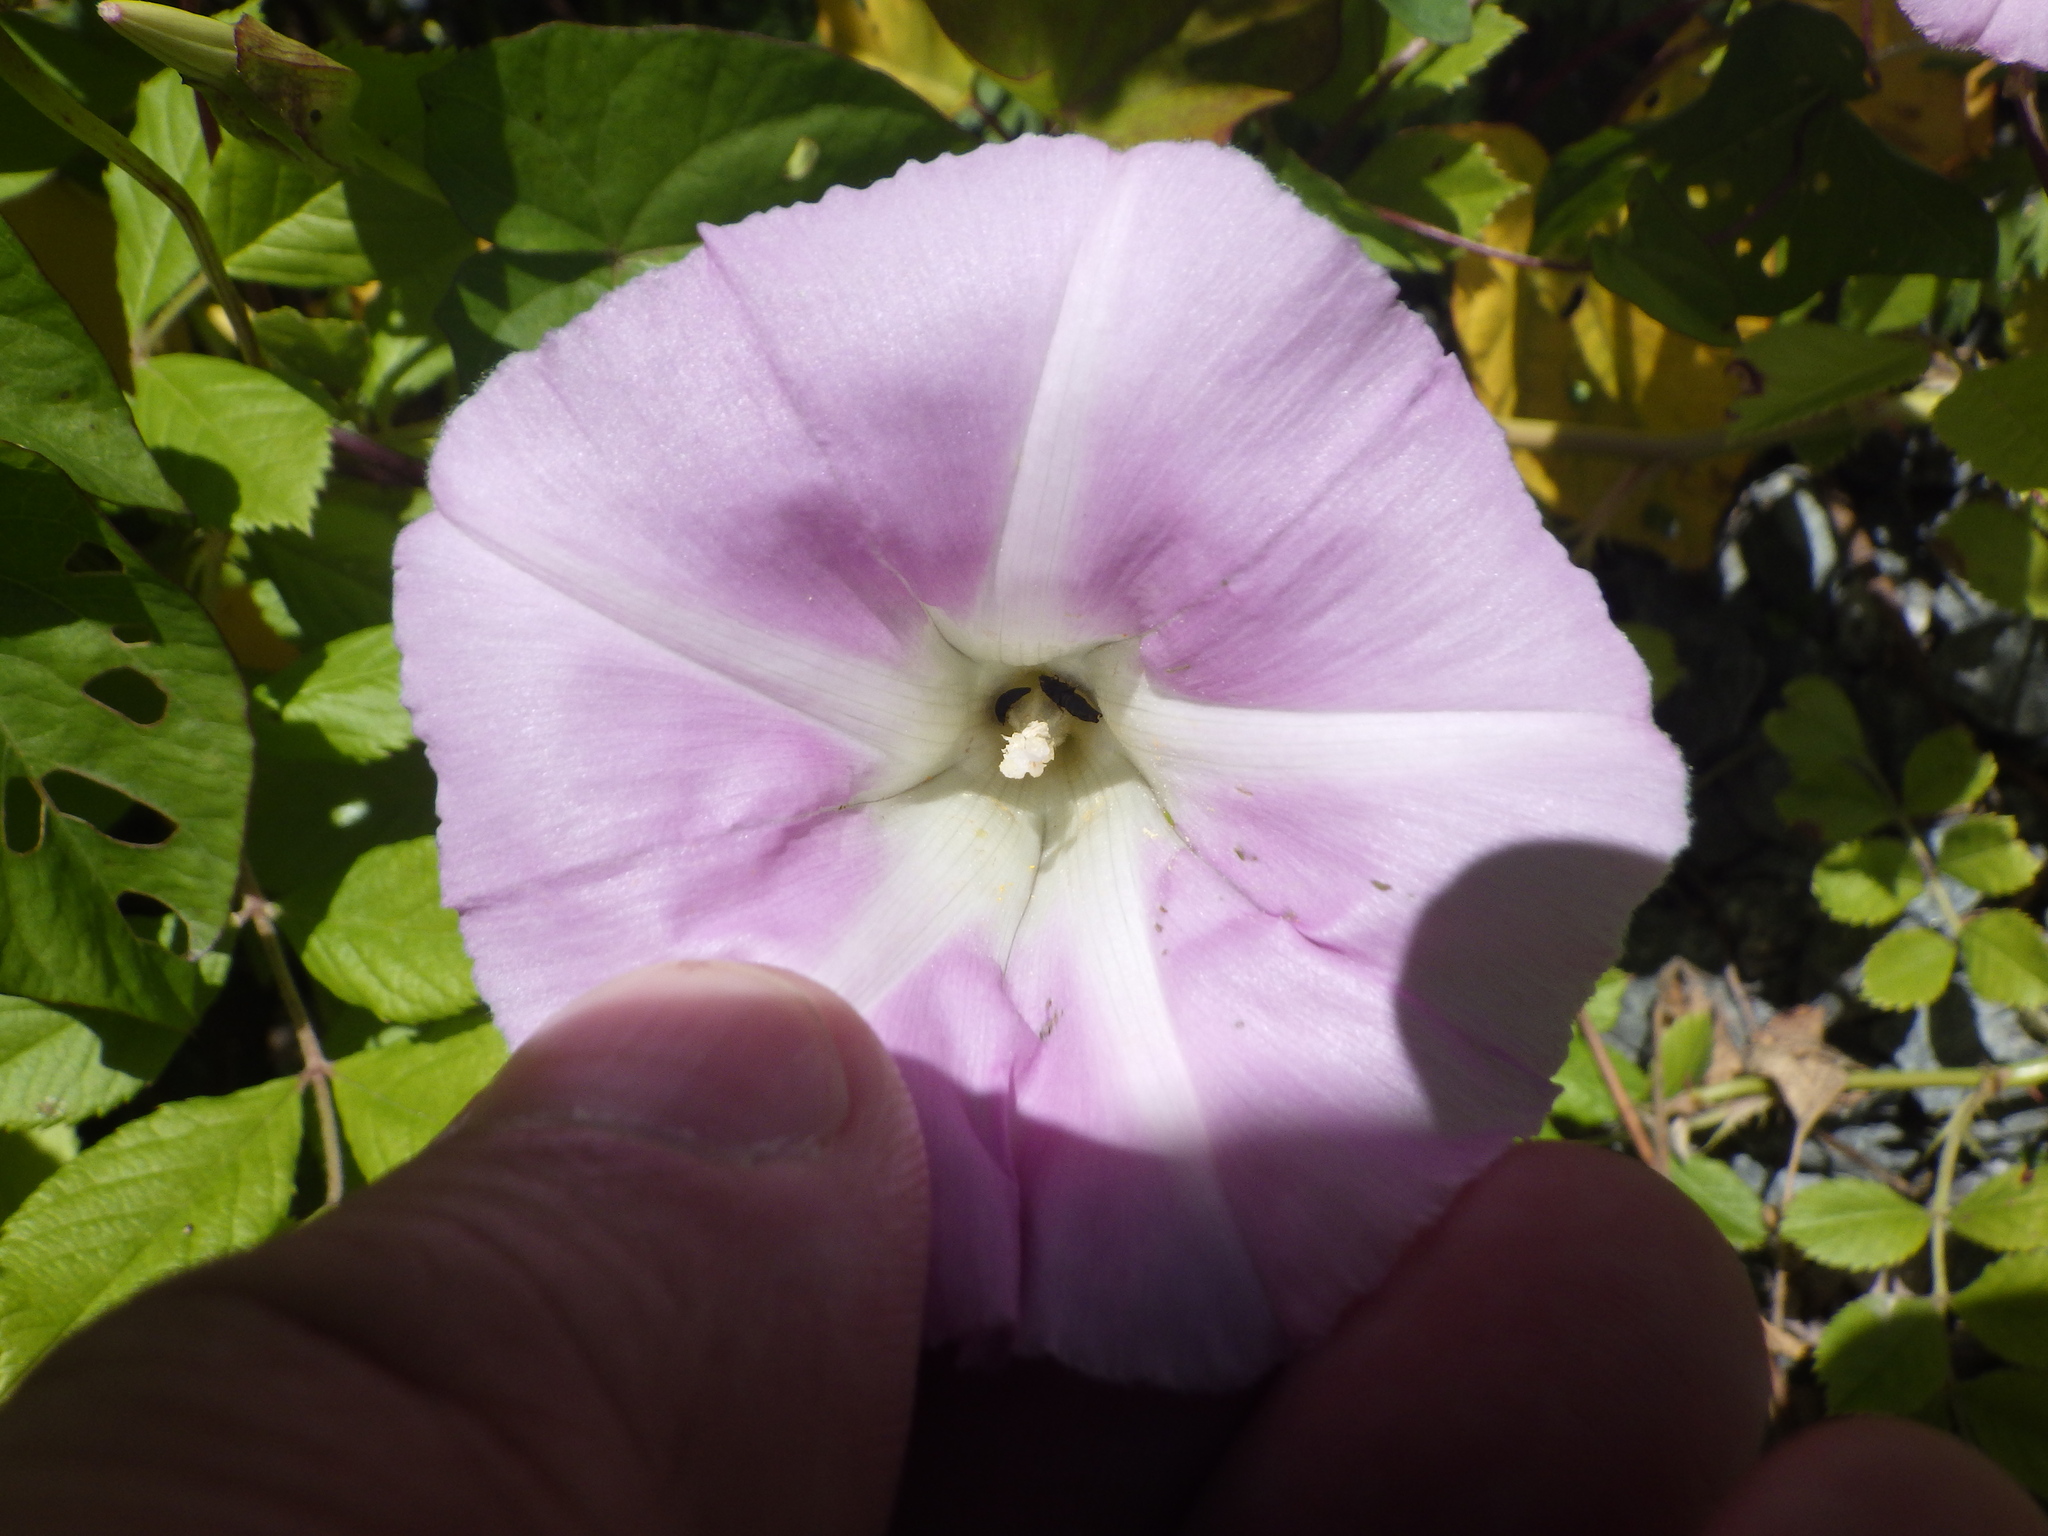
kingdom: Plantae
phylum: Tracheophyta
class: Magnoliopsida
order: Solanales
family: Convolvulaceae
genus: Calystegia
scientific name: Calystegia sepium
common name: Hedge bindweed
